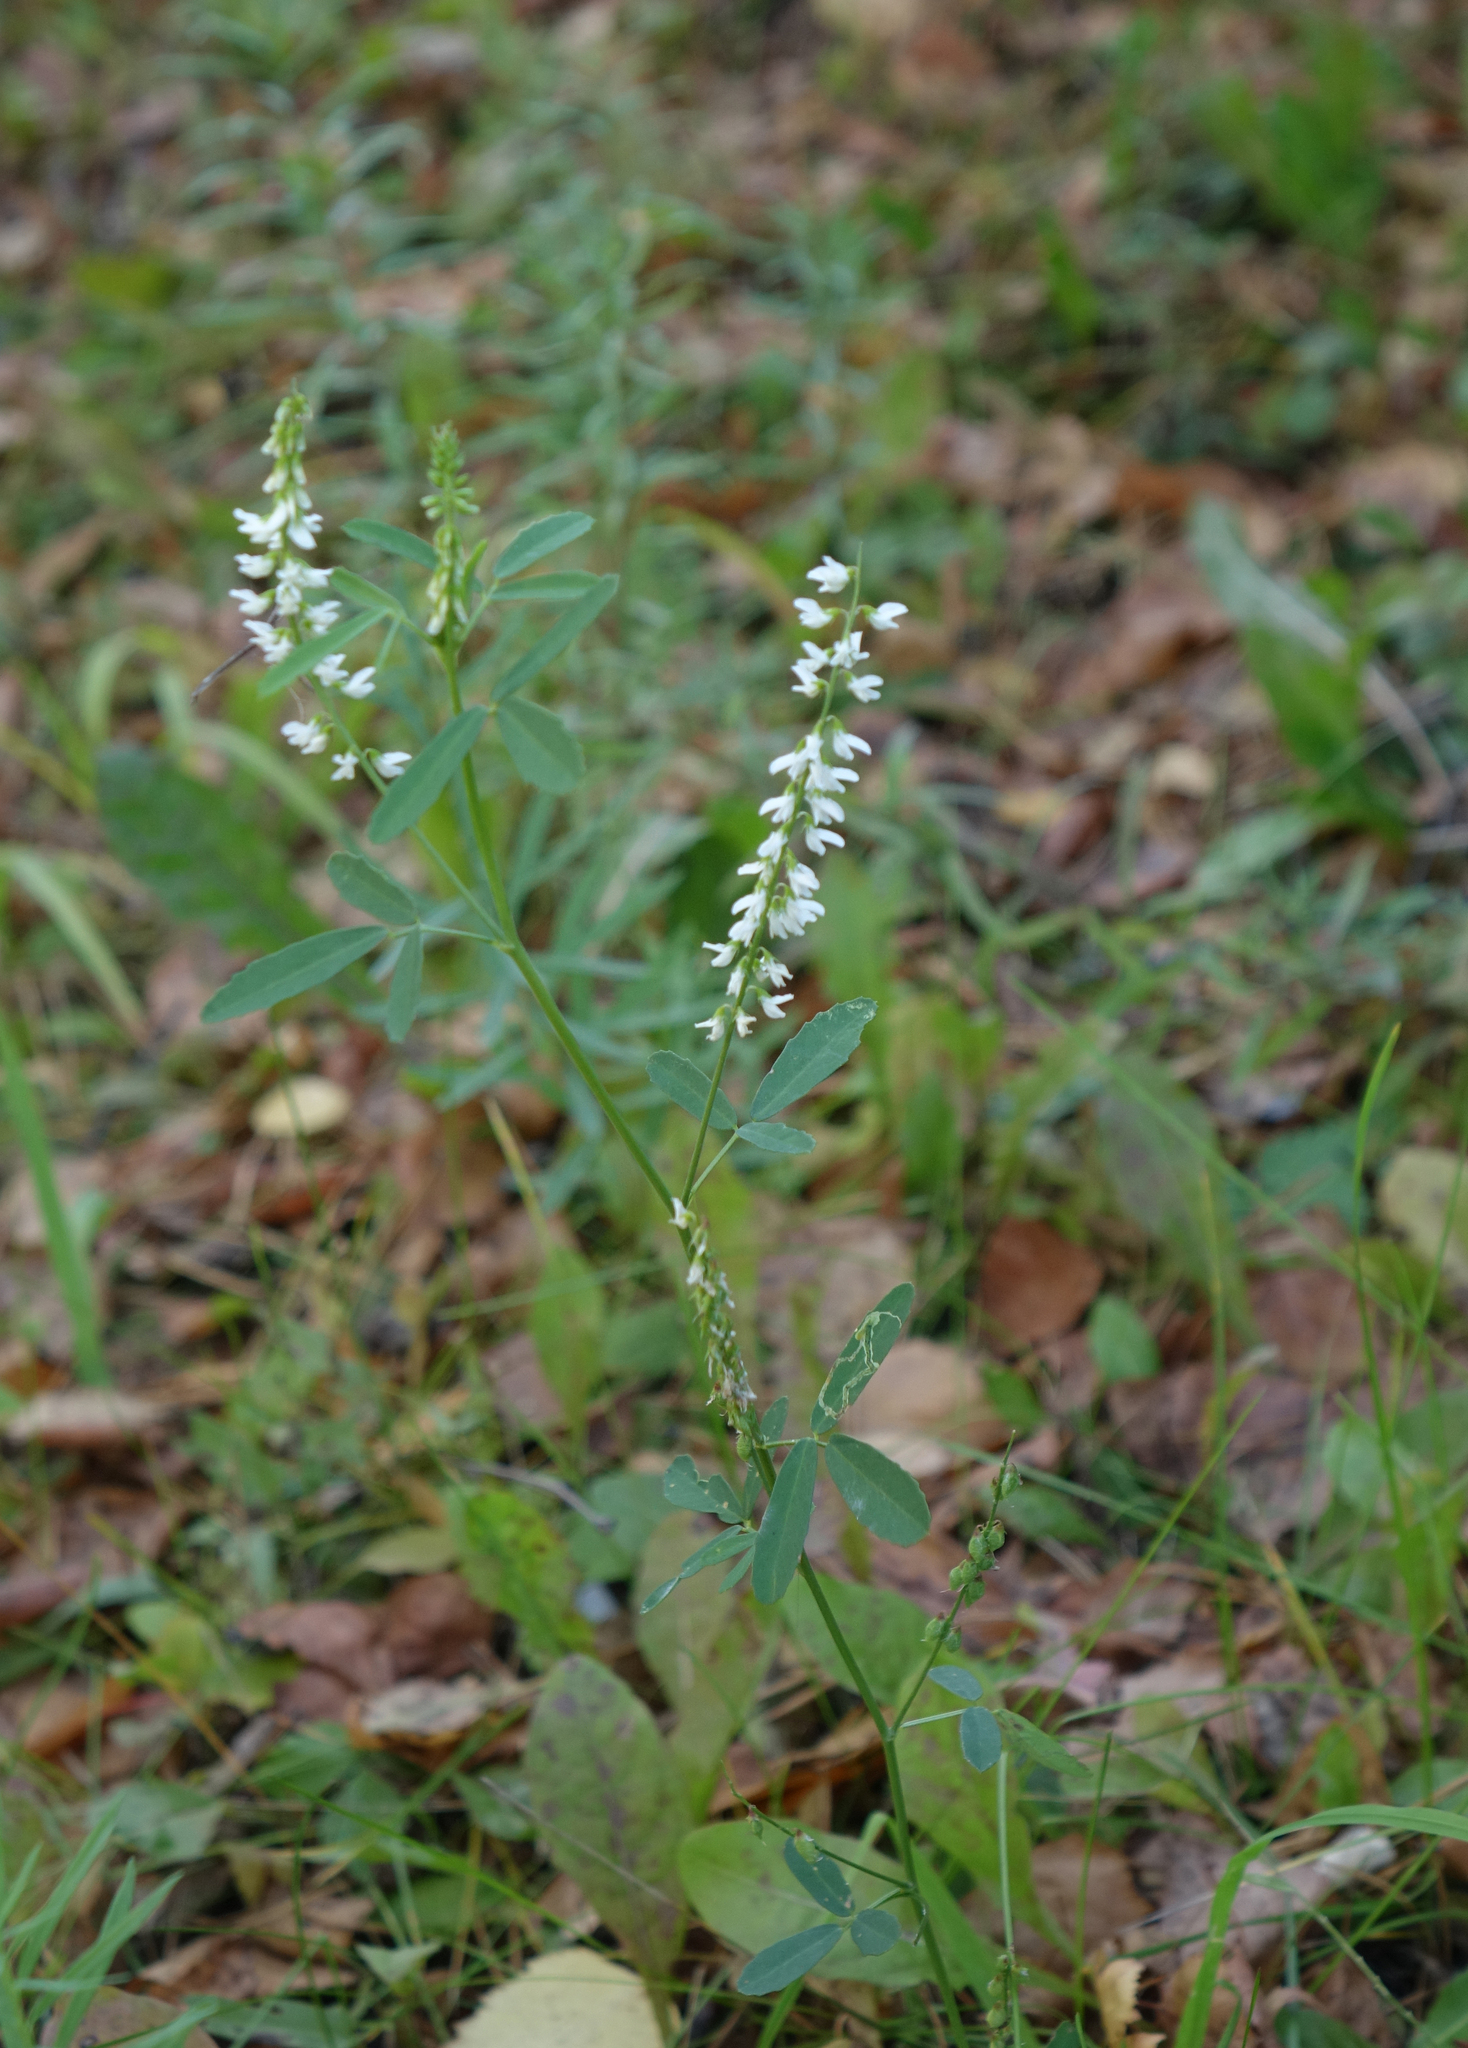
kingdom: Plantae
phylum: Tracheophyta
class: Magnoliopsida
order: Fabales
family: Fabaceae
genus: Melilotus
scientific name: Melilotus albus
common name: White melilot
